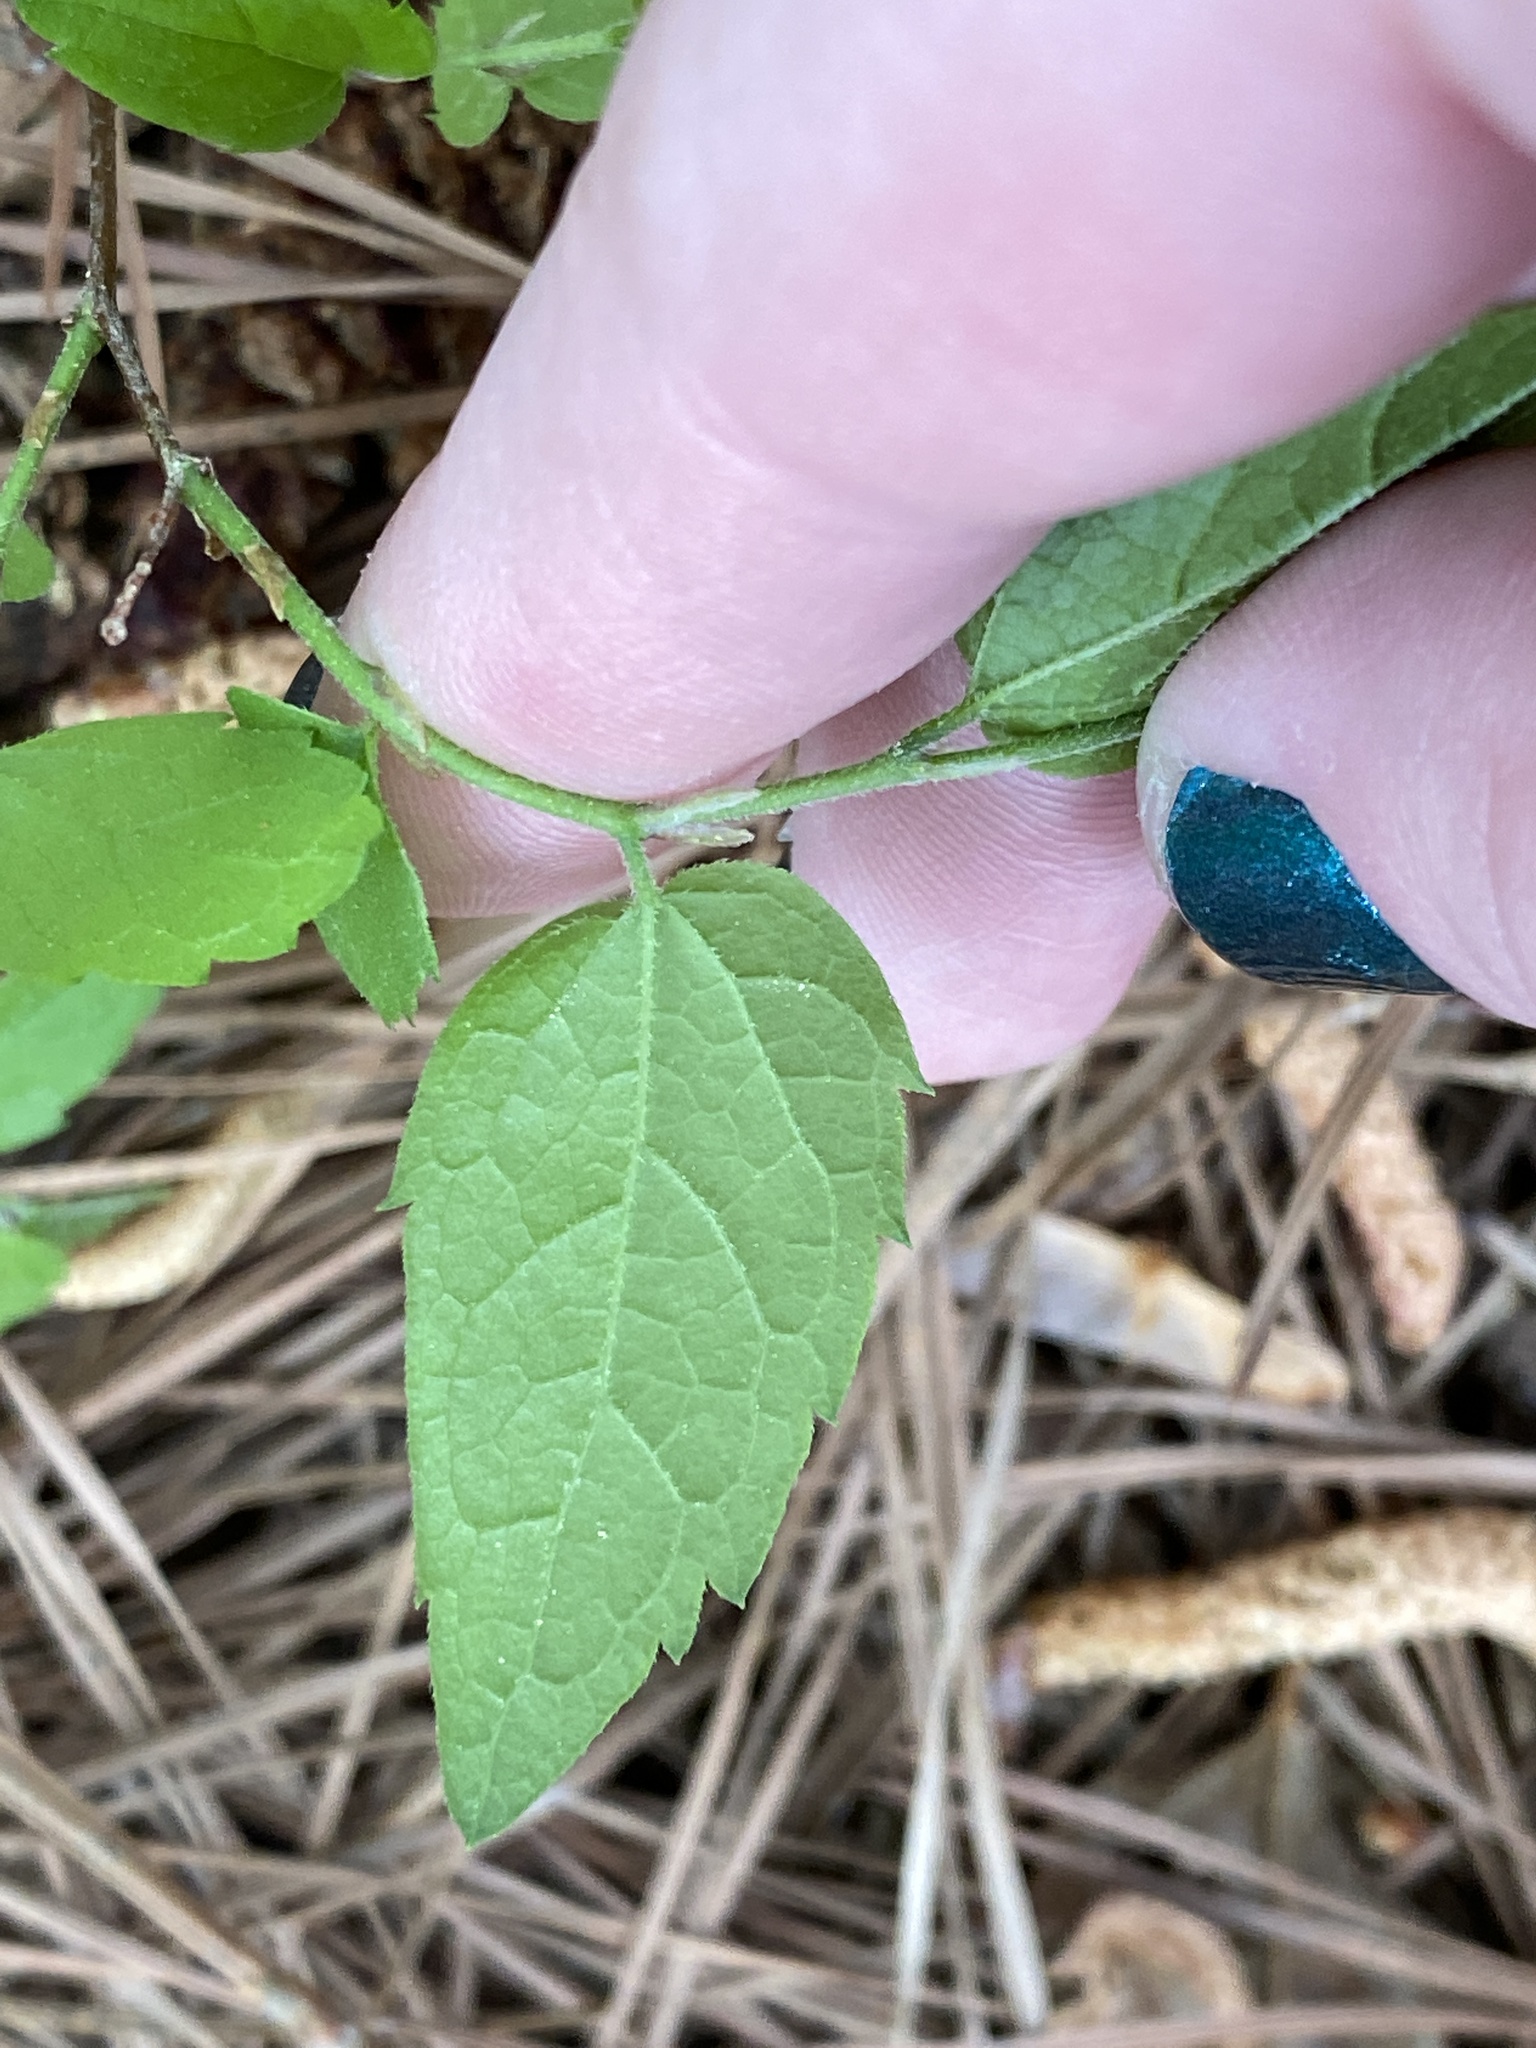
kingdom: Plantae
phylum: Tracheophyta
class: Magnoliopsida
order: Rosales
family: Cannabaceae
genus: Celtis
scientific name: Celtis laevigata
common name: Sugarberry
